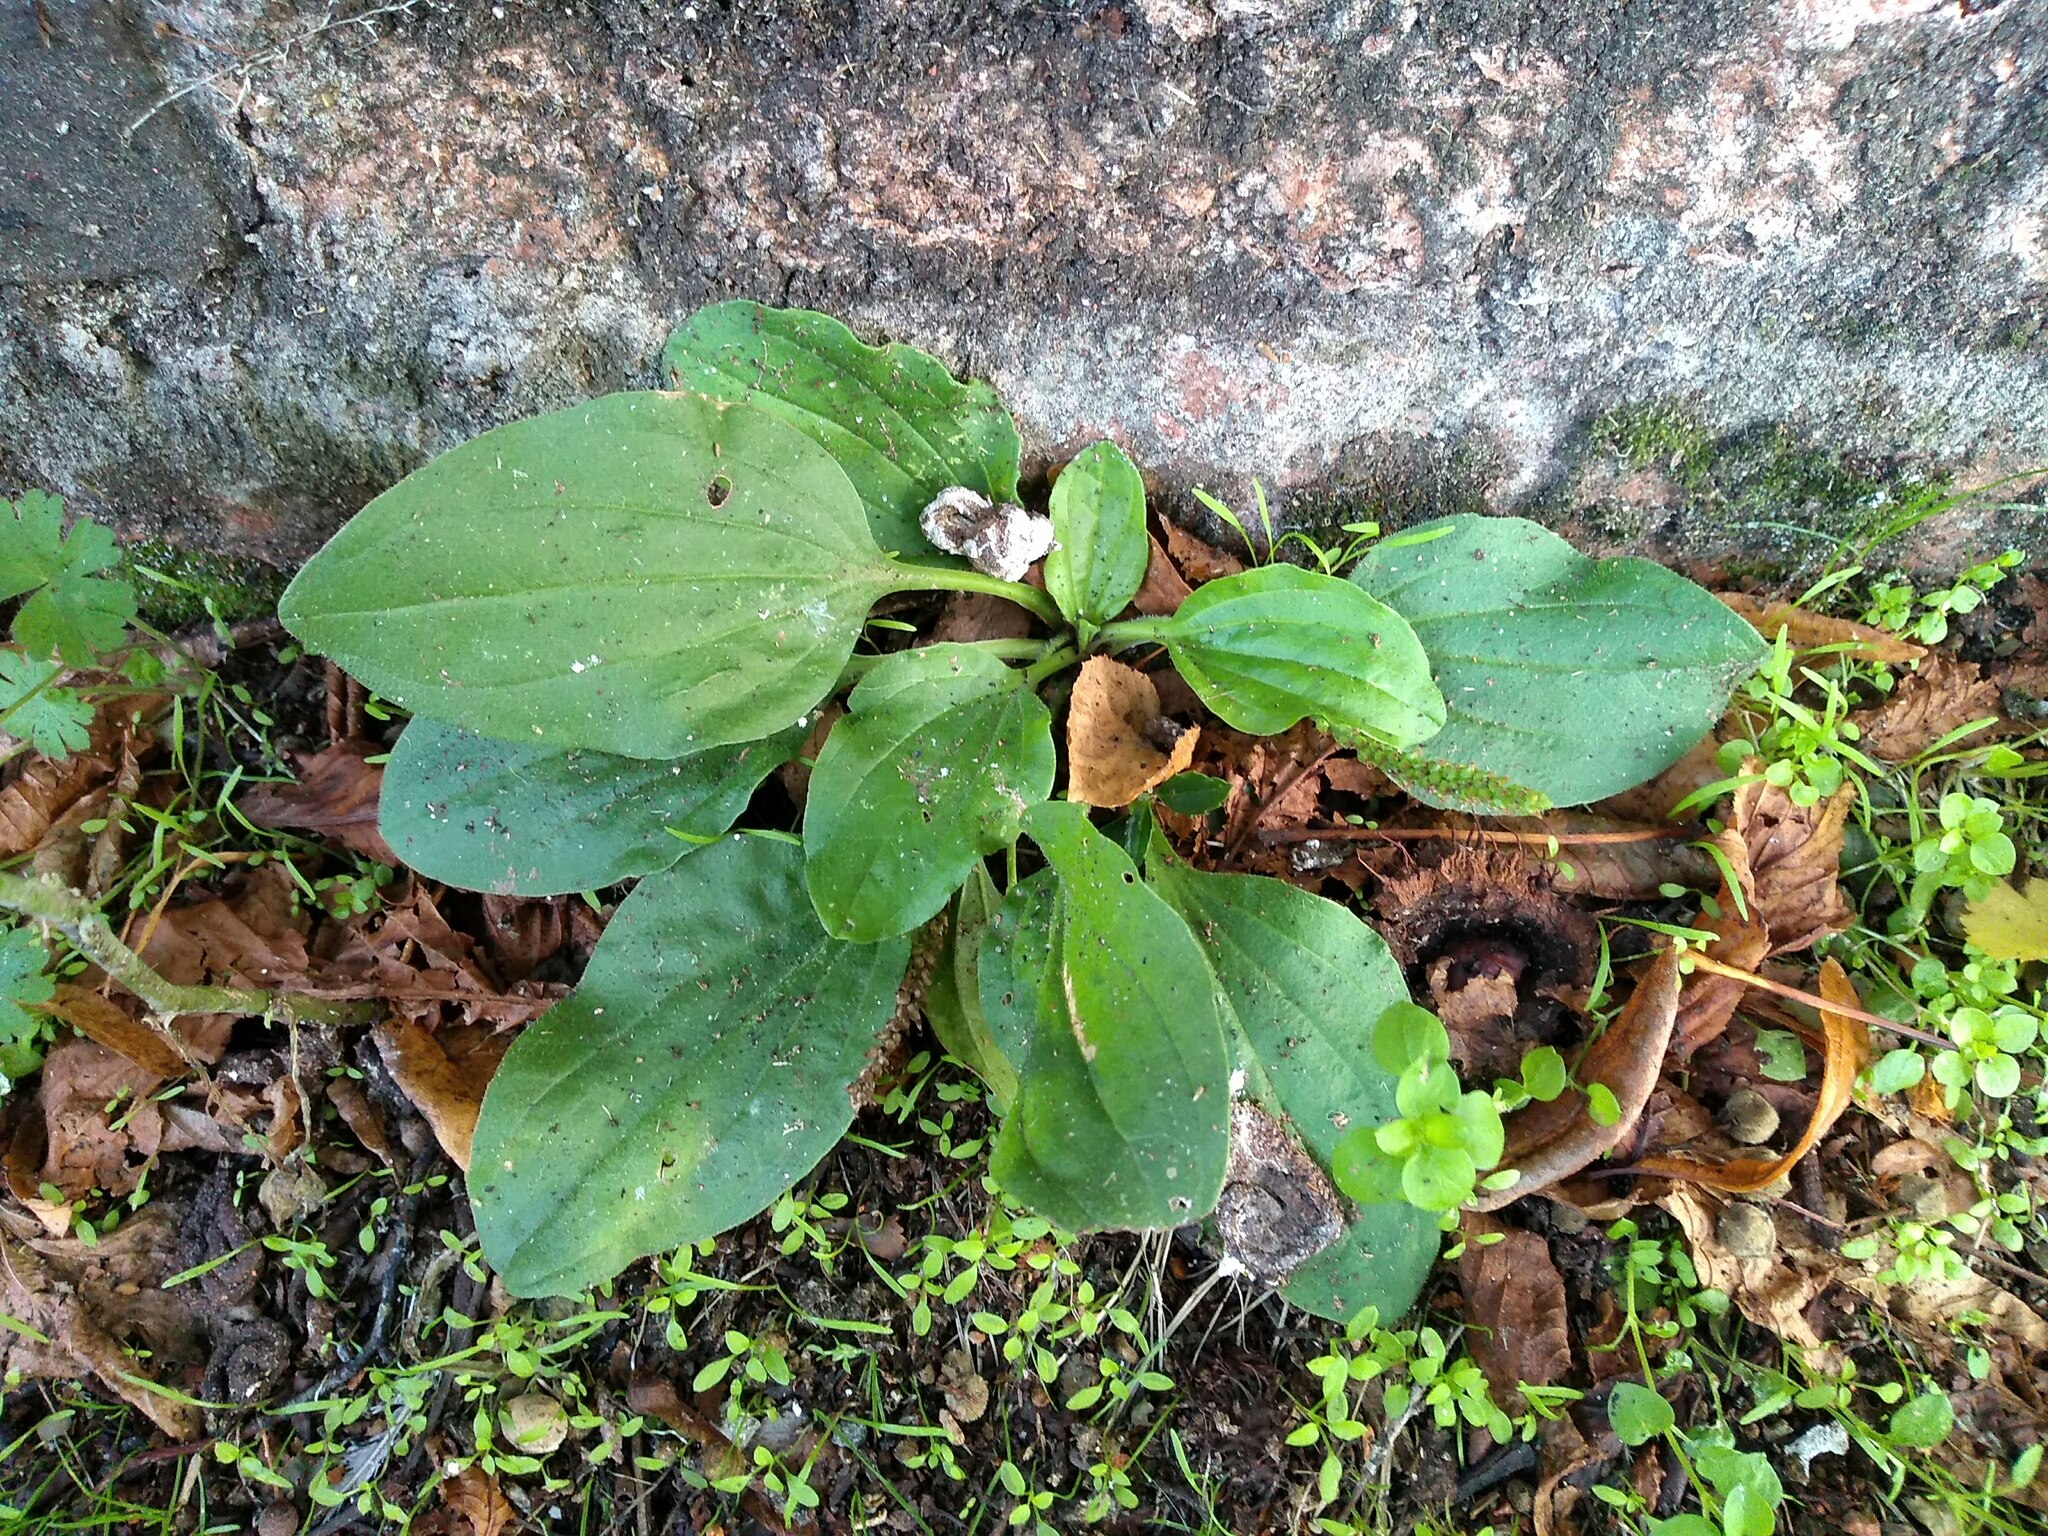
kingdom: Plantae
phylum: Tracheophyta
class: Magnoliopsida
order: Lamiales
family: Plantaginaceae
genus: Plantago
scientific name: Plantago major
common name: Common plantain
